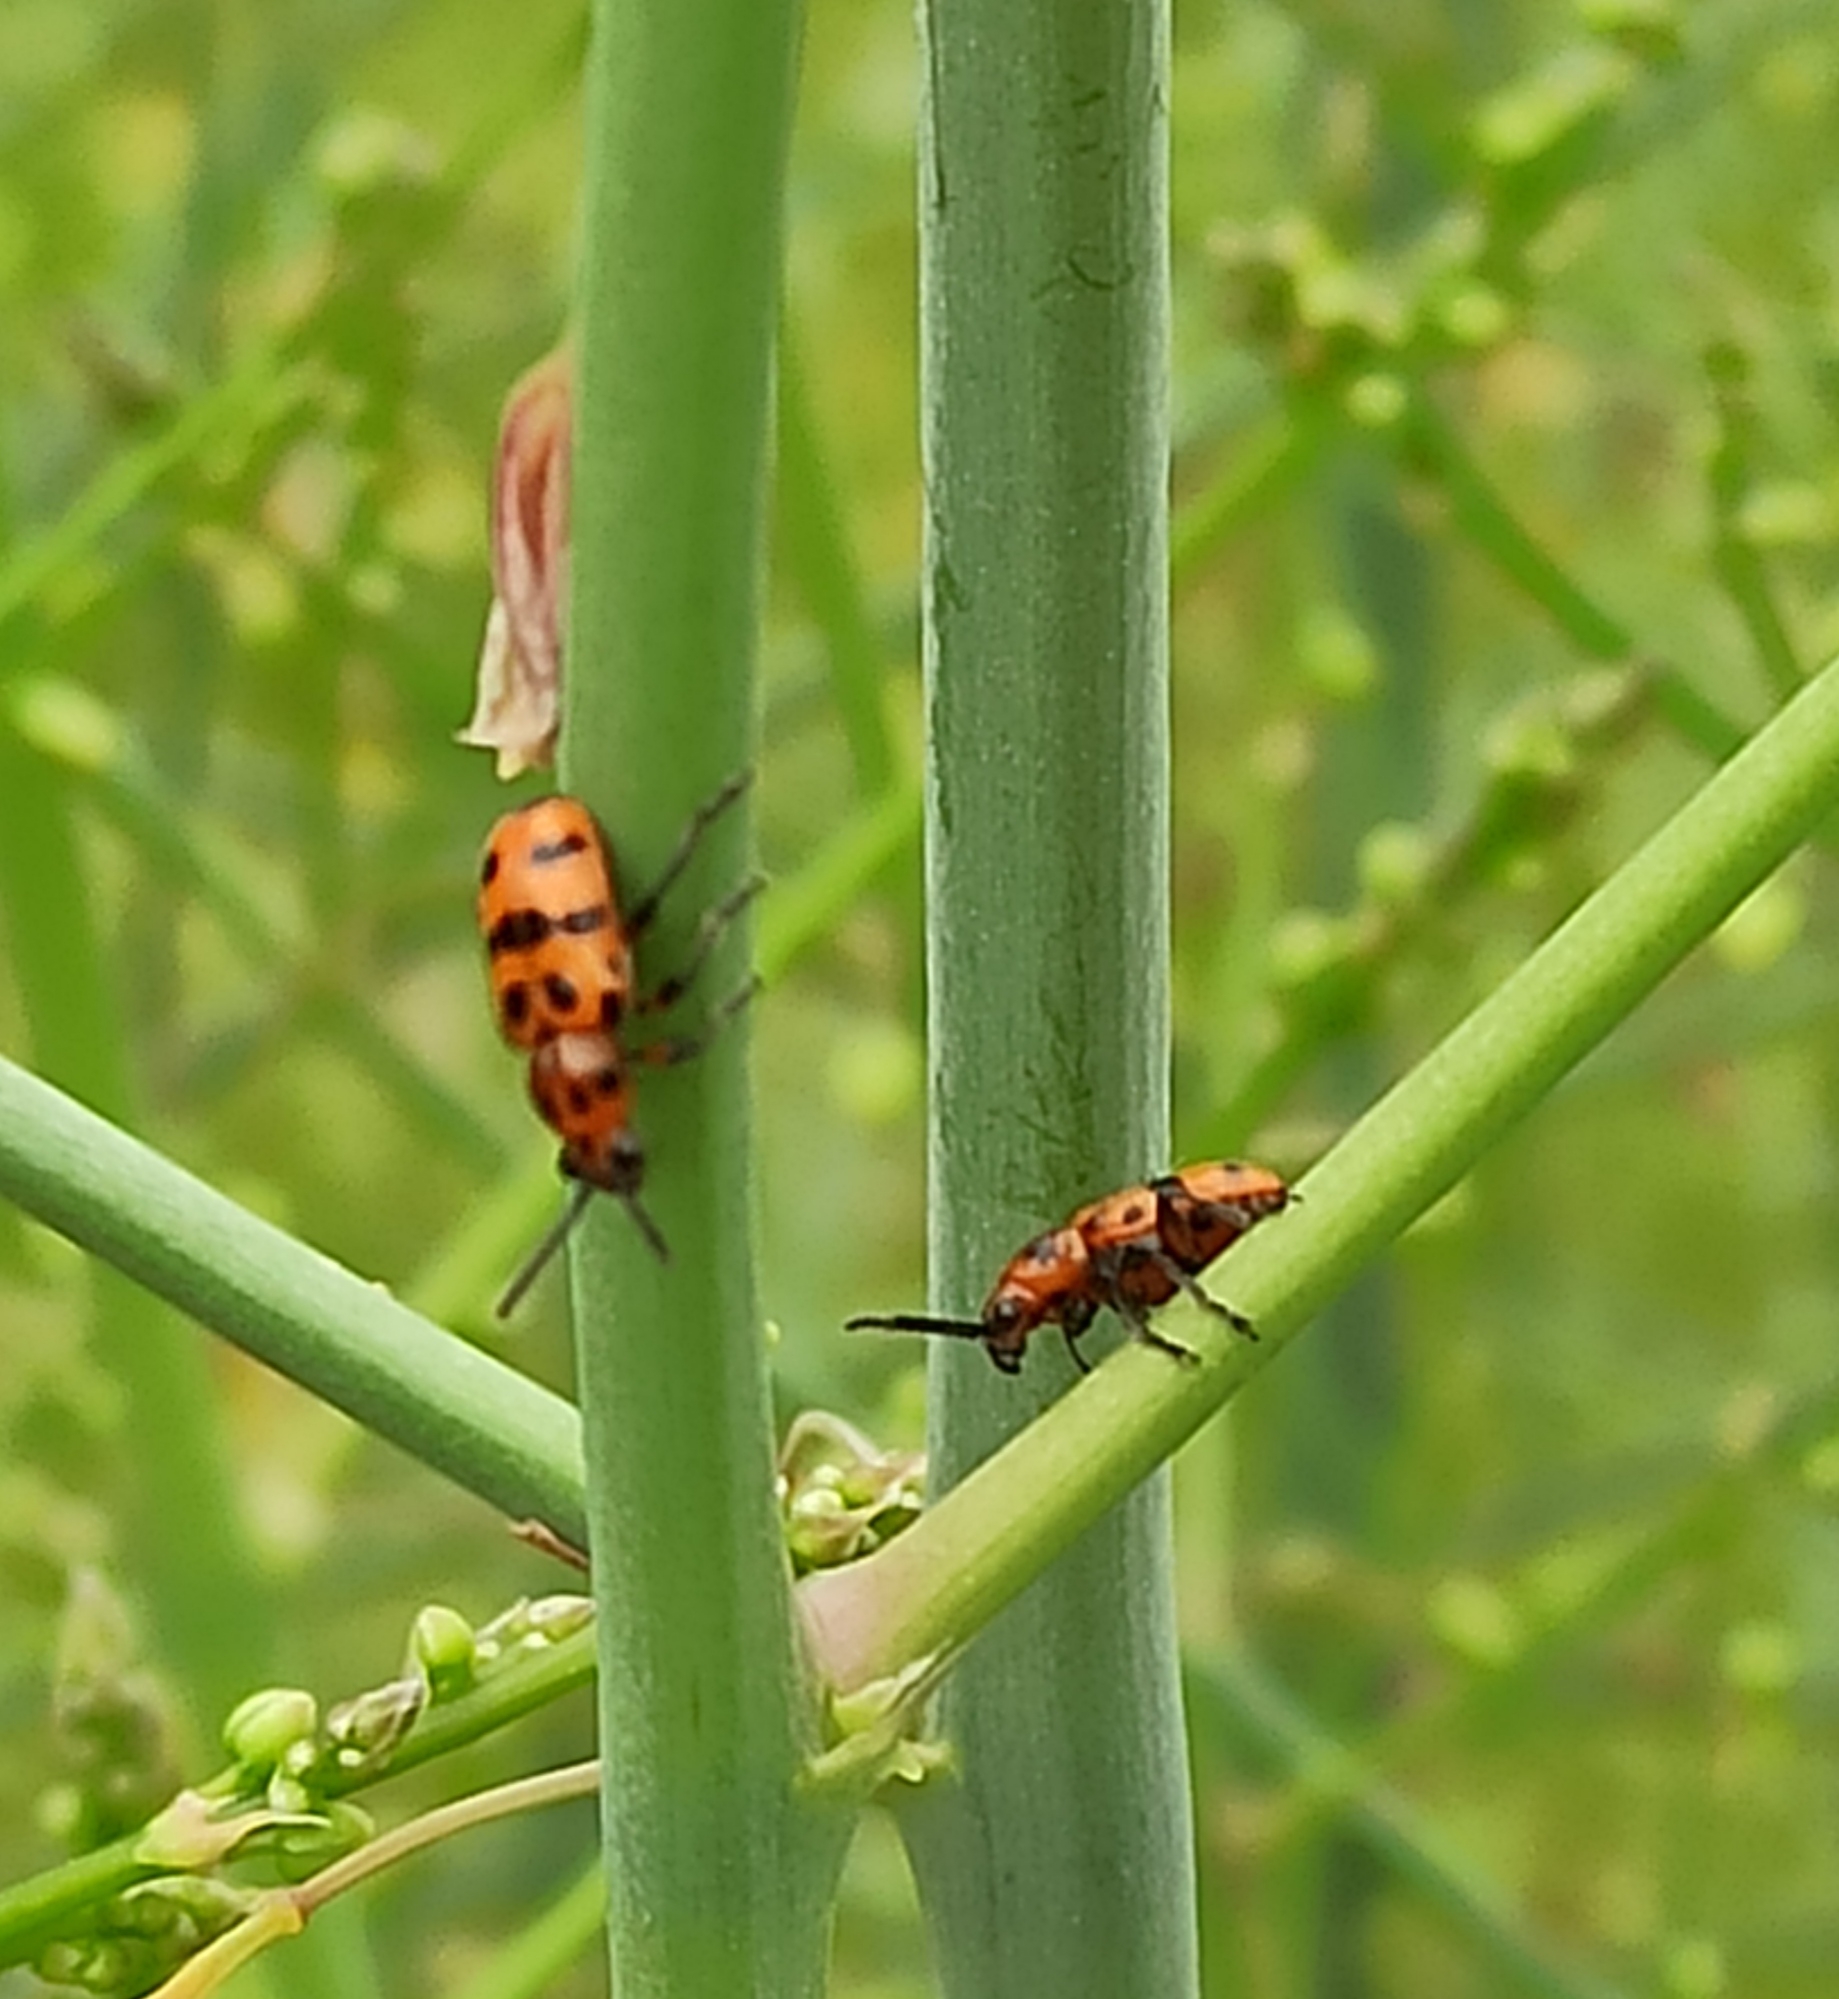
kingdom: Animalia
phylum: Arthropoda
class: Insecta
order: Coleoptera
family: Chrysomelidae
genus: Crioceris
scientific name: Crioceris quatuordecimpunctata
